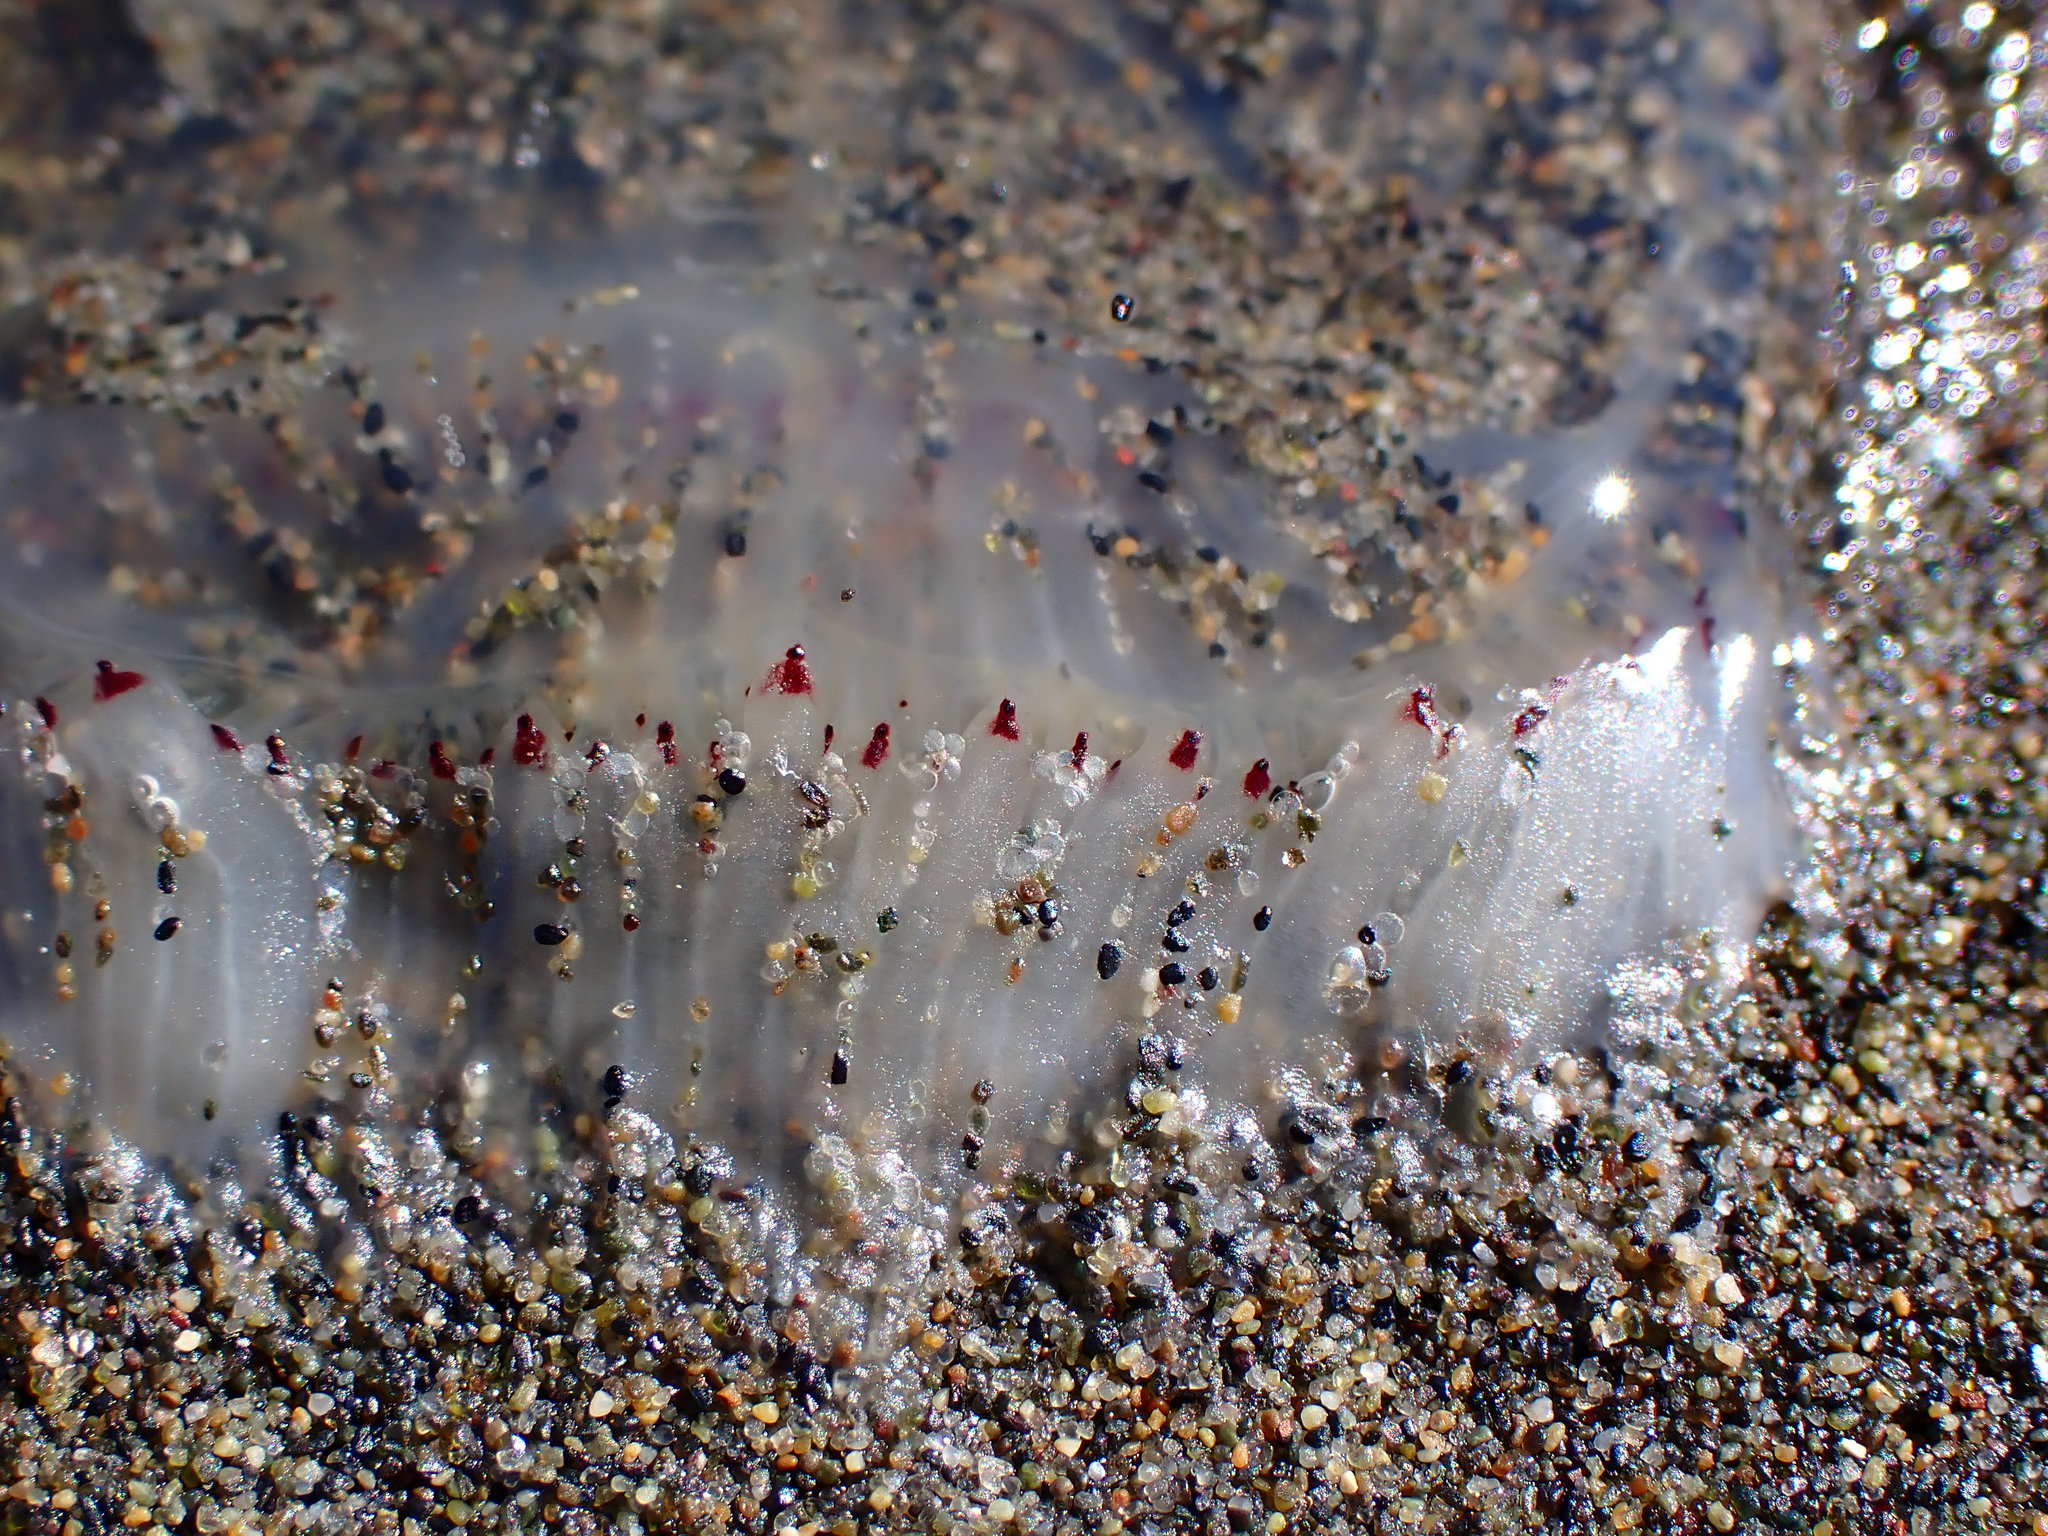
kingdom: Animalia
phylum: Cnidaria
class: Hydrozoa
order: Anthoathecata
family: Corynidae
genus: Polyorchis
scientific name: Polyorchis penicillatus
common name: Penicillate jellyfish
